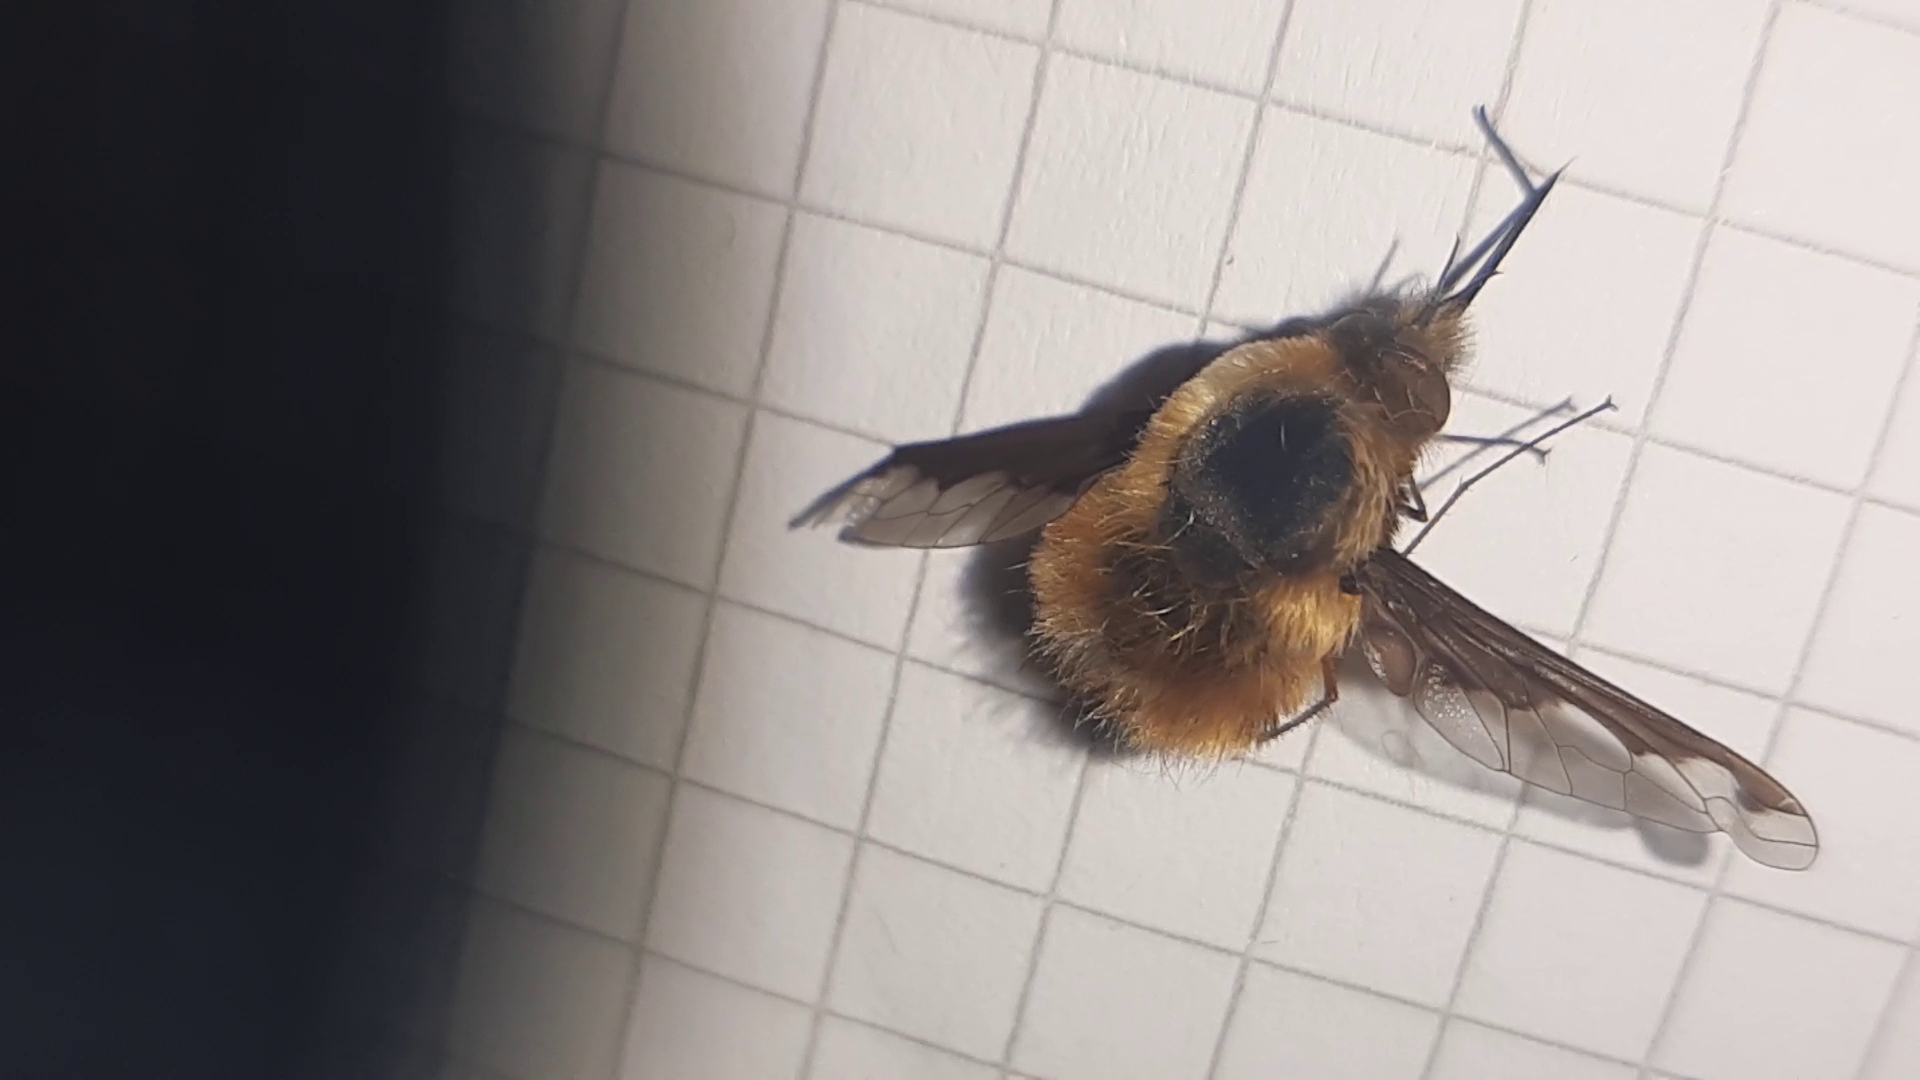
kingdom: Animalia
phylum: Arthropoda
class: Insecta
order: Diptera
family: Bombyliidae
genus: Bombylius
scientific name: Bombylius major
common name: Bee fly
